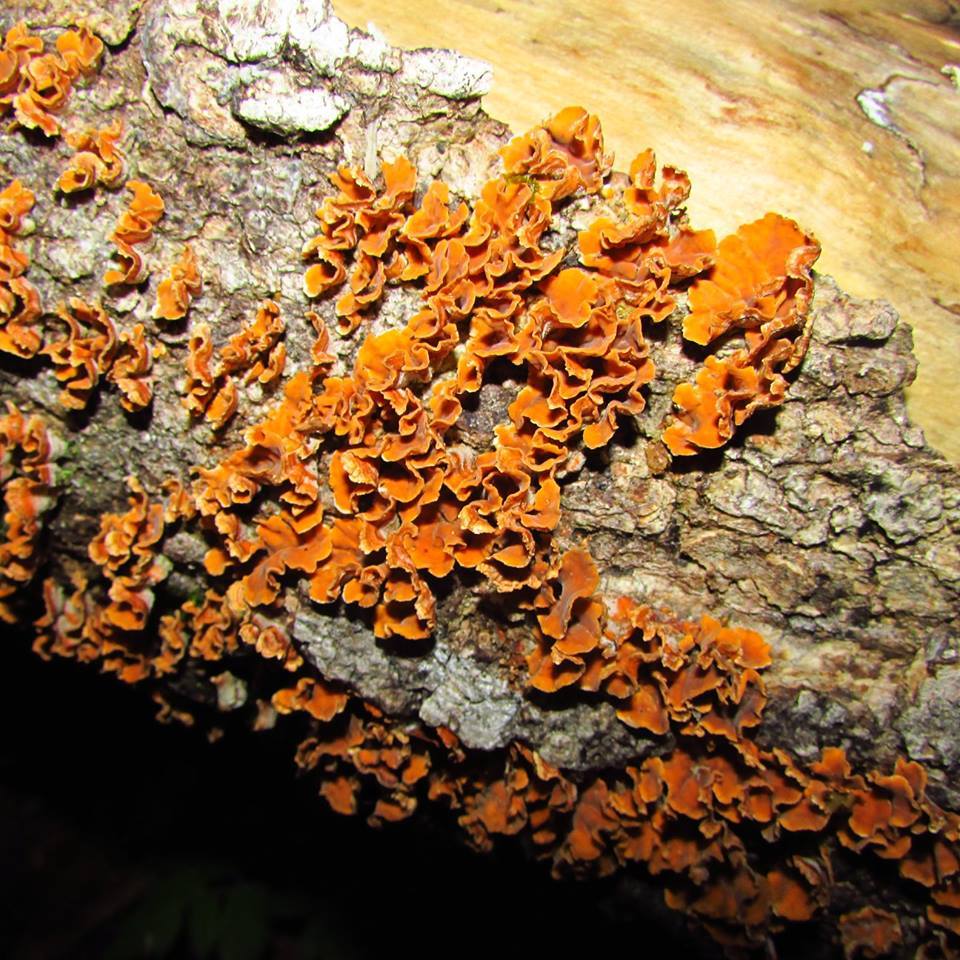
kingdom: Fungi
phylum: Basidiomycota
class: Agaricomycetes
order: Russulales
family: Stereaceae
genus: Stereum
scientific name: Stereum complicatum
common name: Crowded parchment
